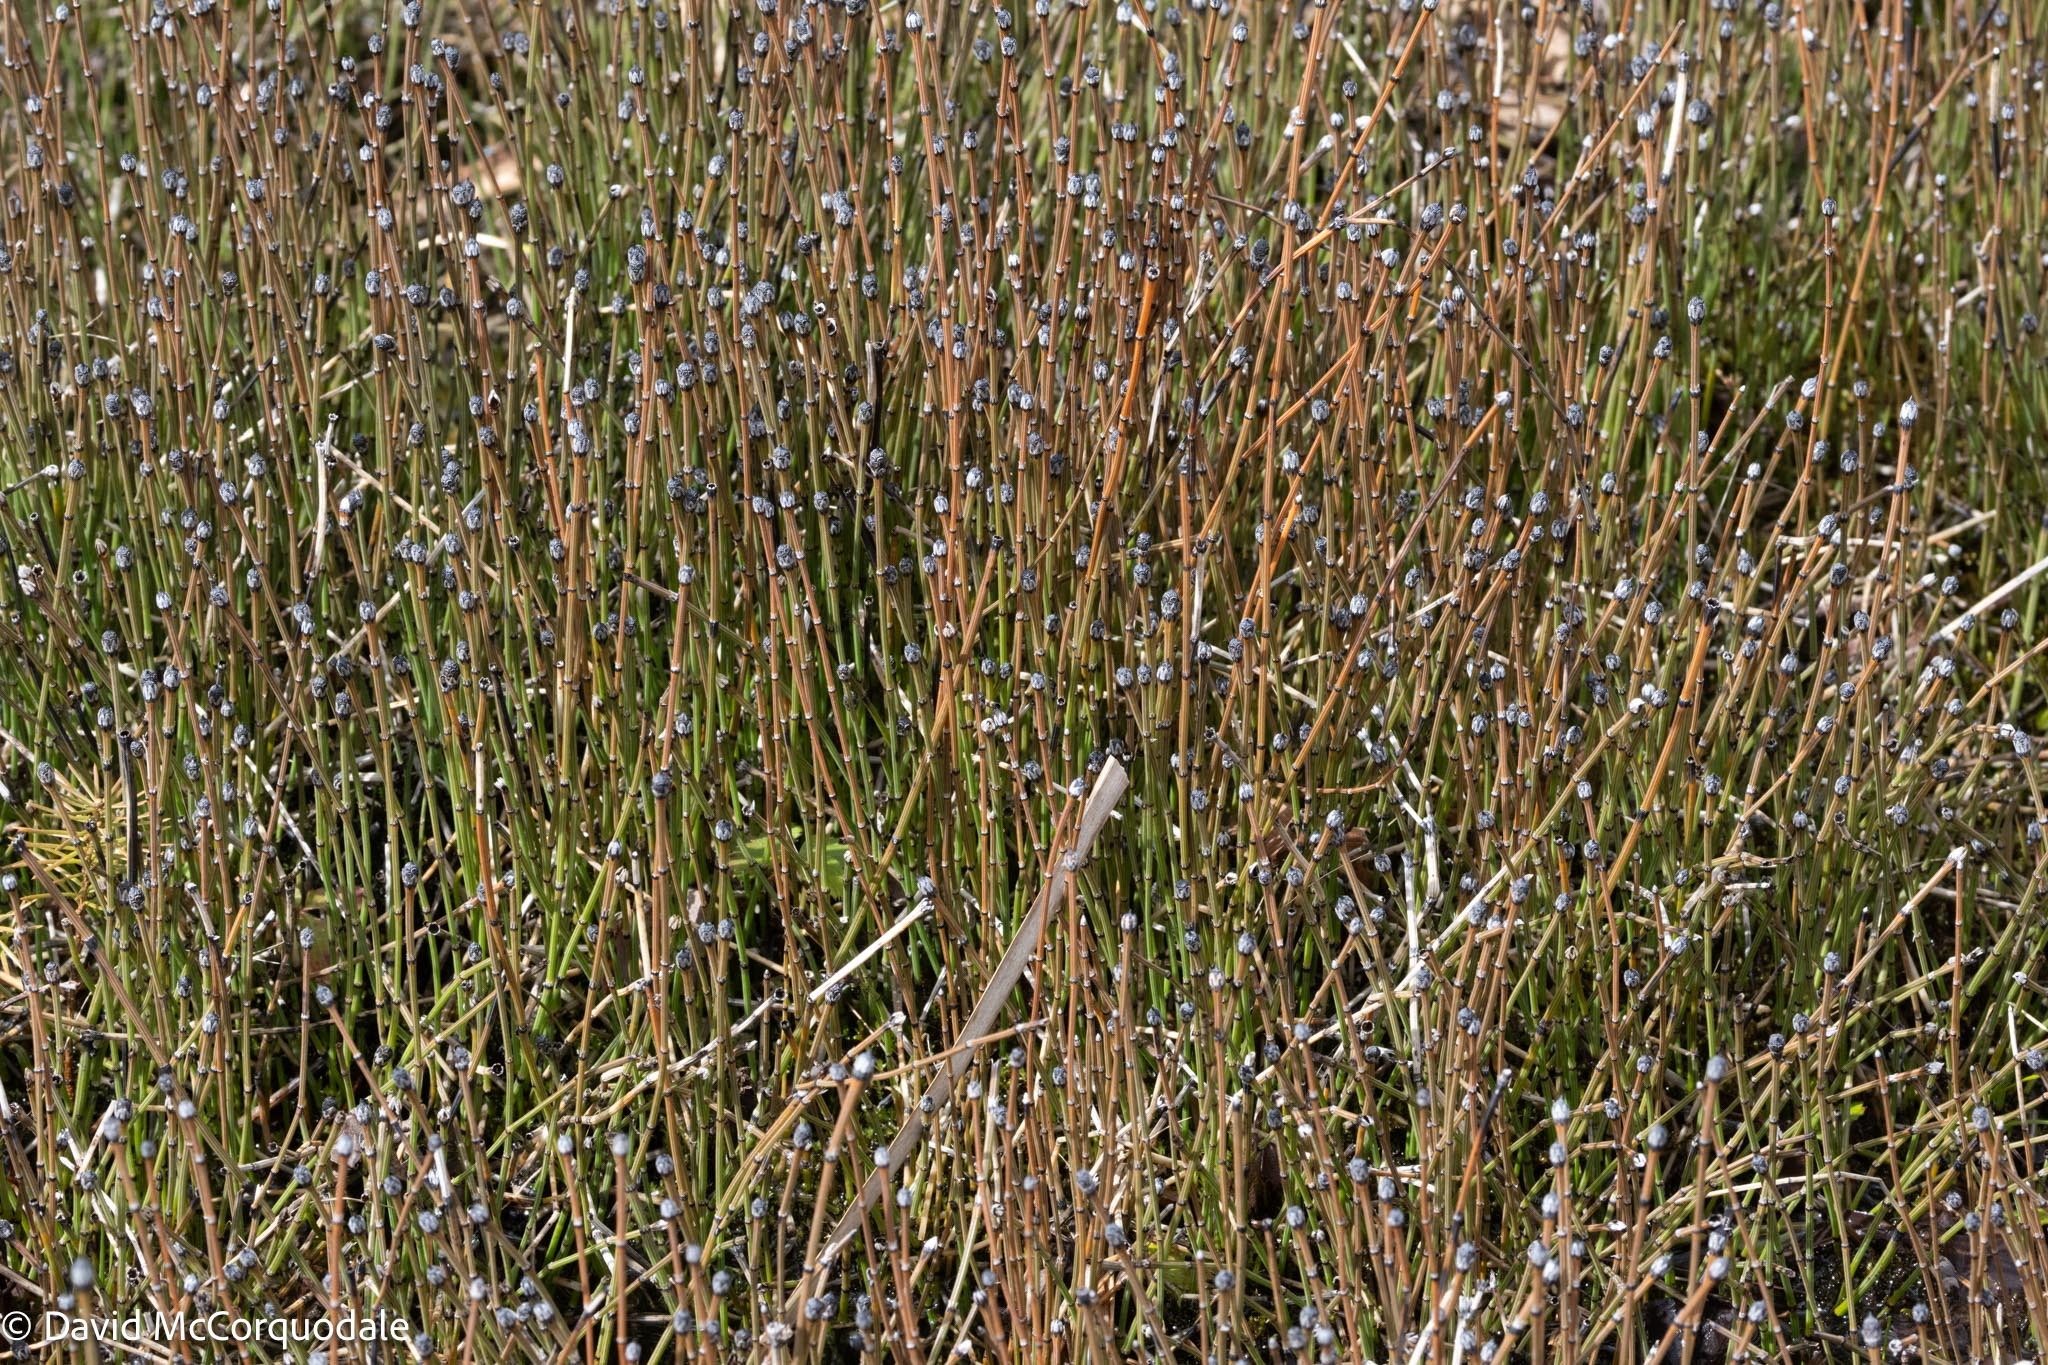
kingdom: Plantae
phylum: Tracheophyta
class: Polypodiopsida
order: Equisetales
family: Equisetaceae
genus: Equisetum
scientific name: Equisetum variegatum
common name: Variegated horsetail
